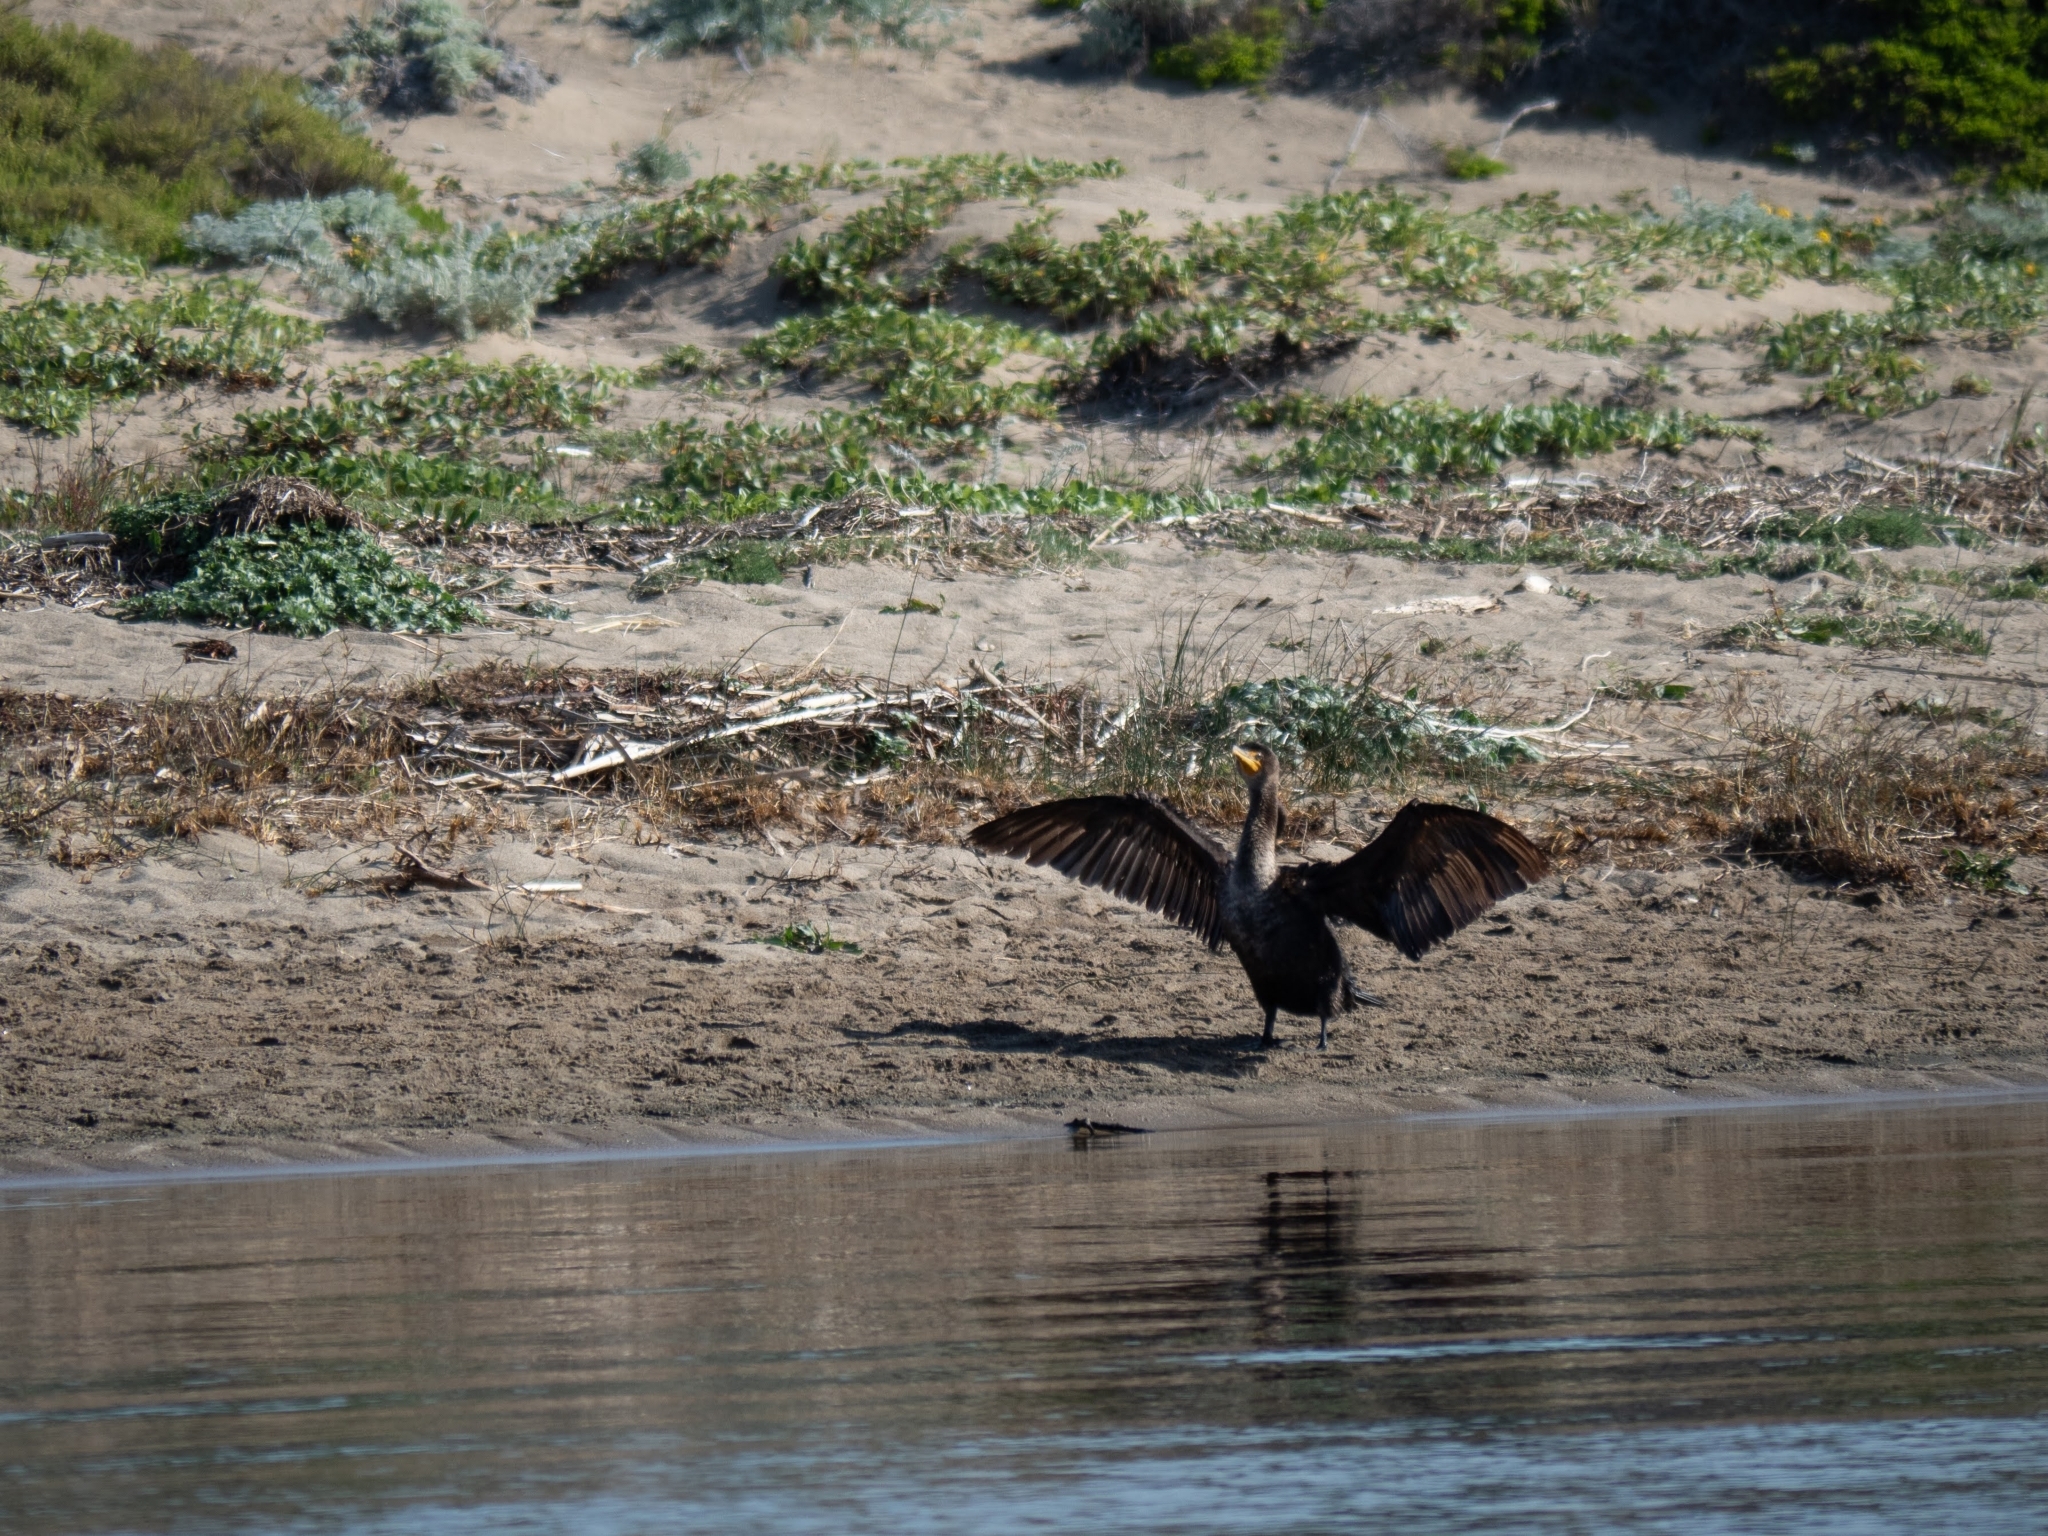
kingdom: Animalia
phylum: Chordata
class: Aves
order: Suliformes
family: Phalacrocoracidae
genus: Phalacrocorax
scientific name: Phalacrocorax auritus
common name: Double-crested cormorant
